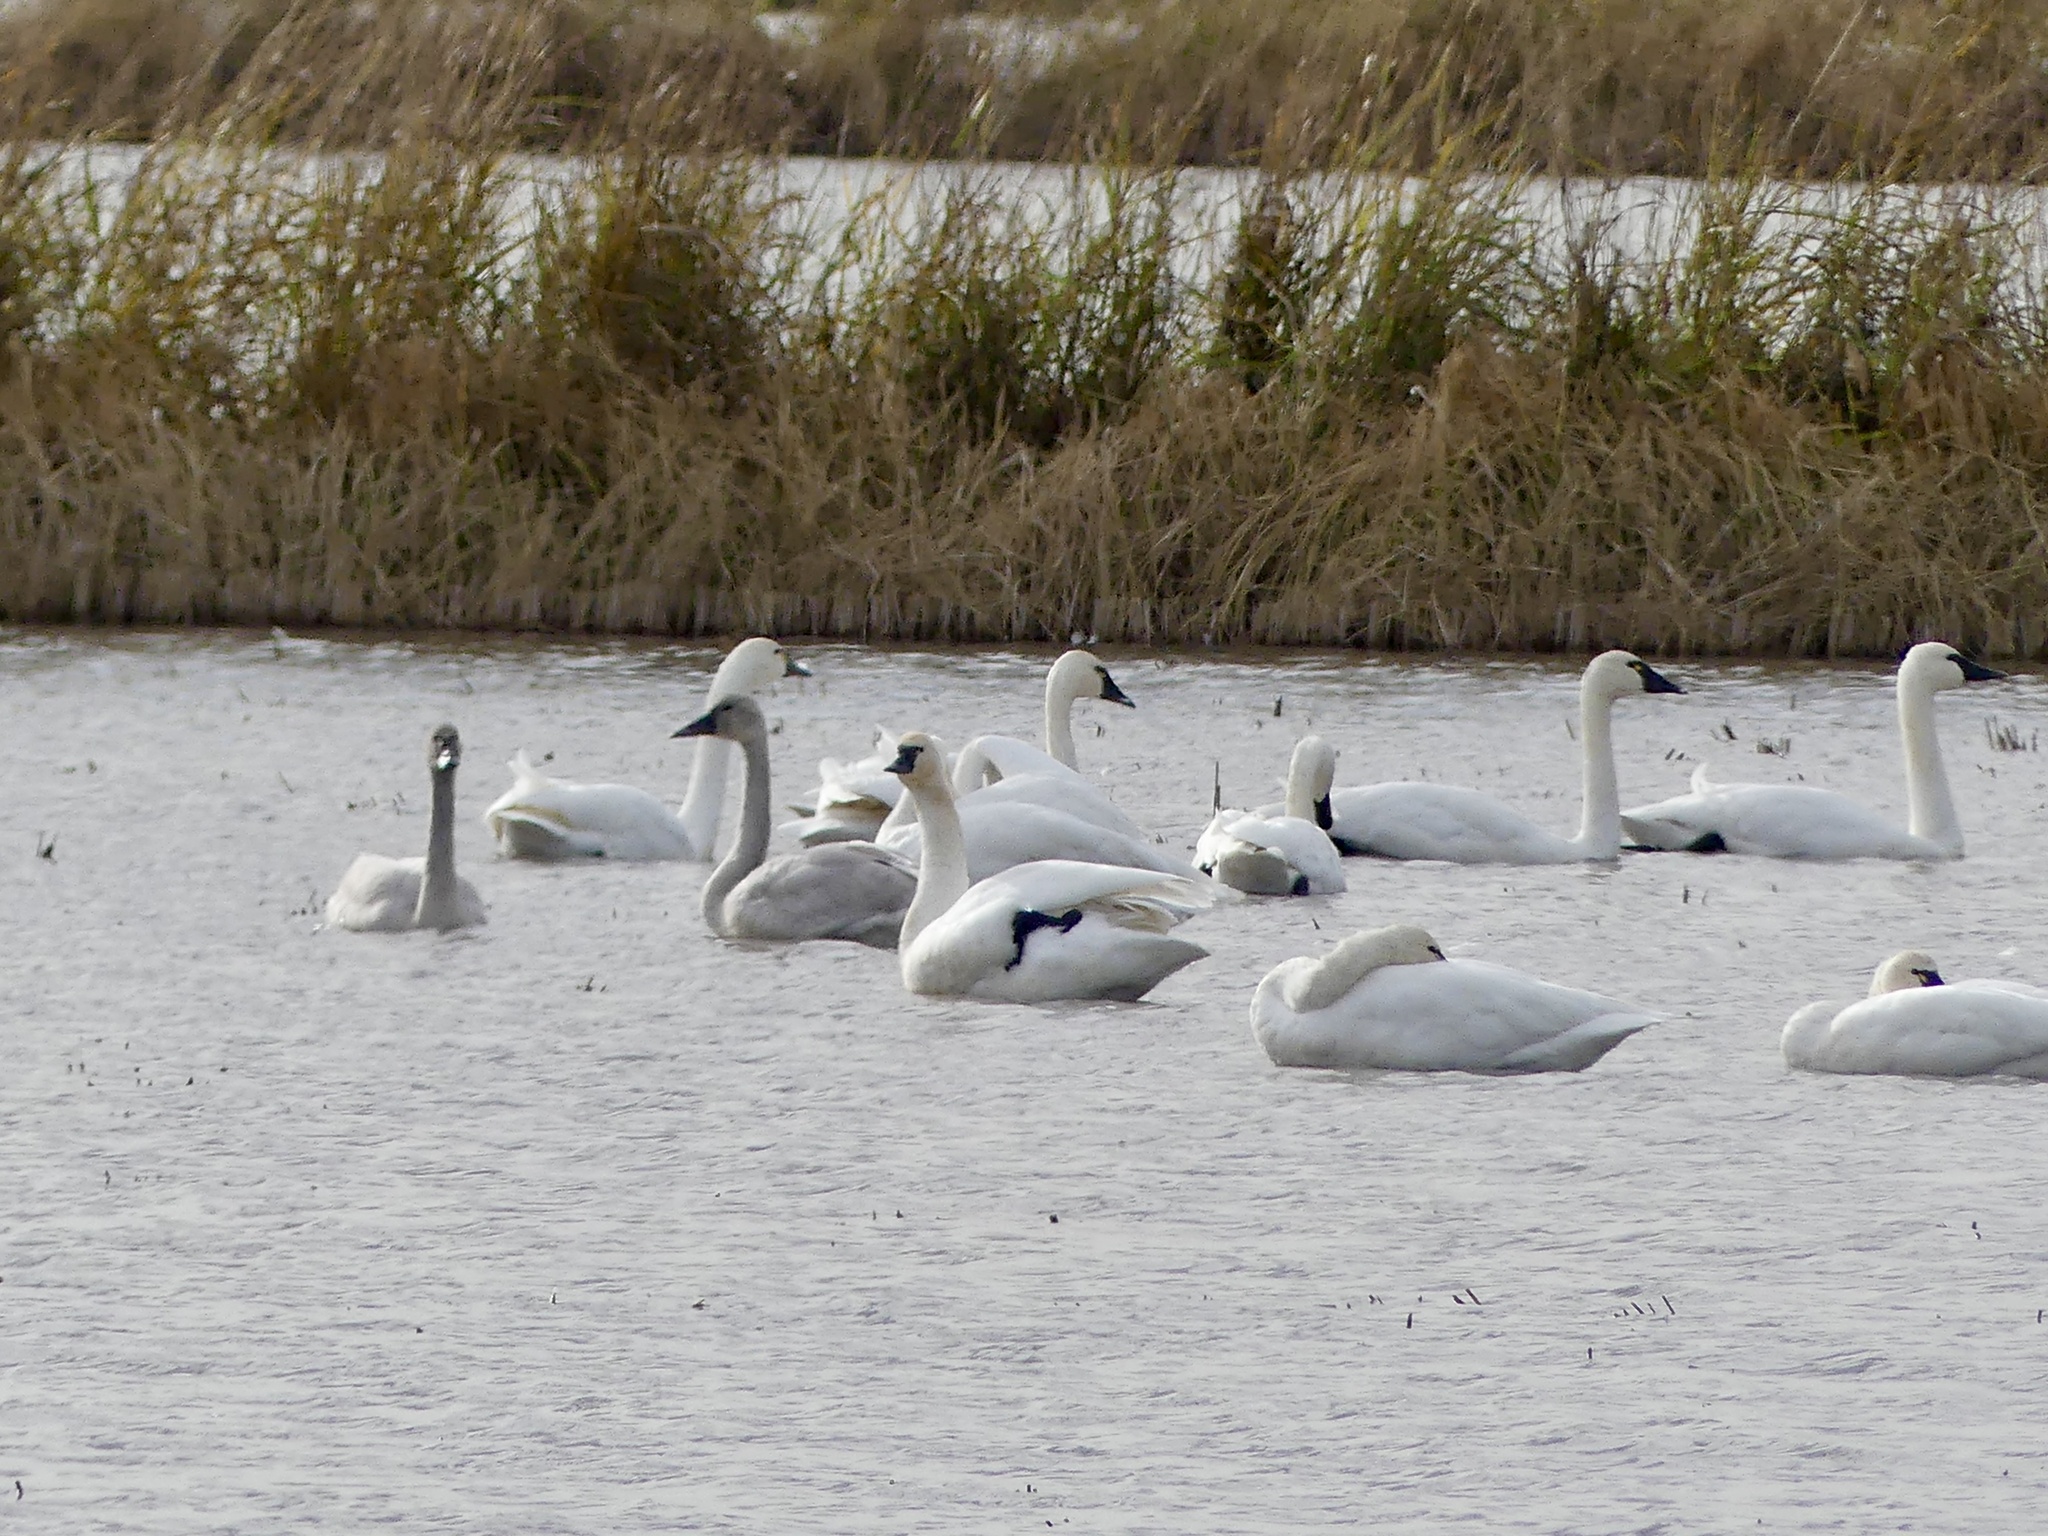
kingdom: Animalia
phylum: Chordata
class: Aves
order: Anseriformes
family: Anatidae
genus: Cygnus
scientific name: Cygnus columbianus
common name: Tundra swan
